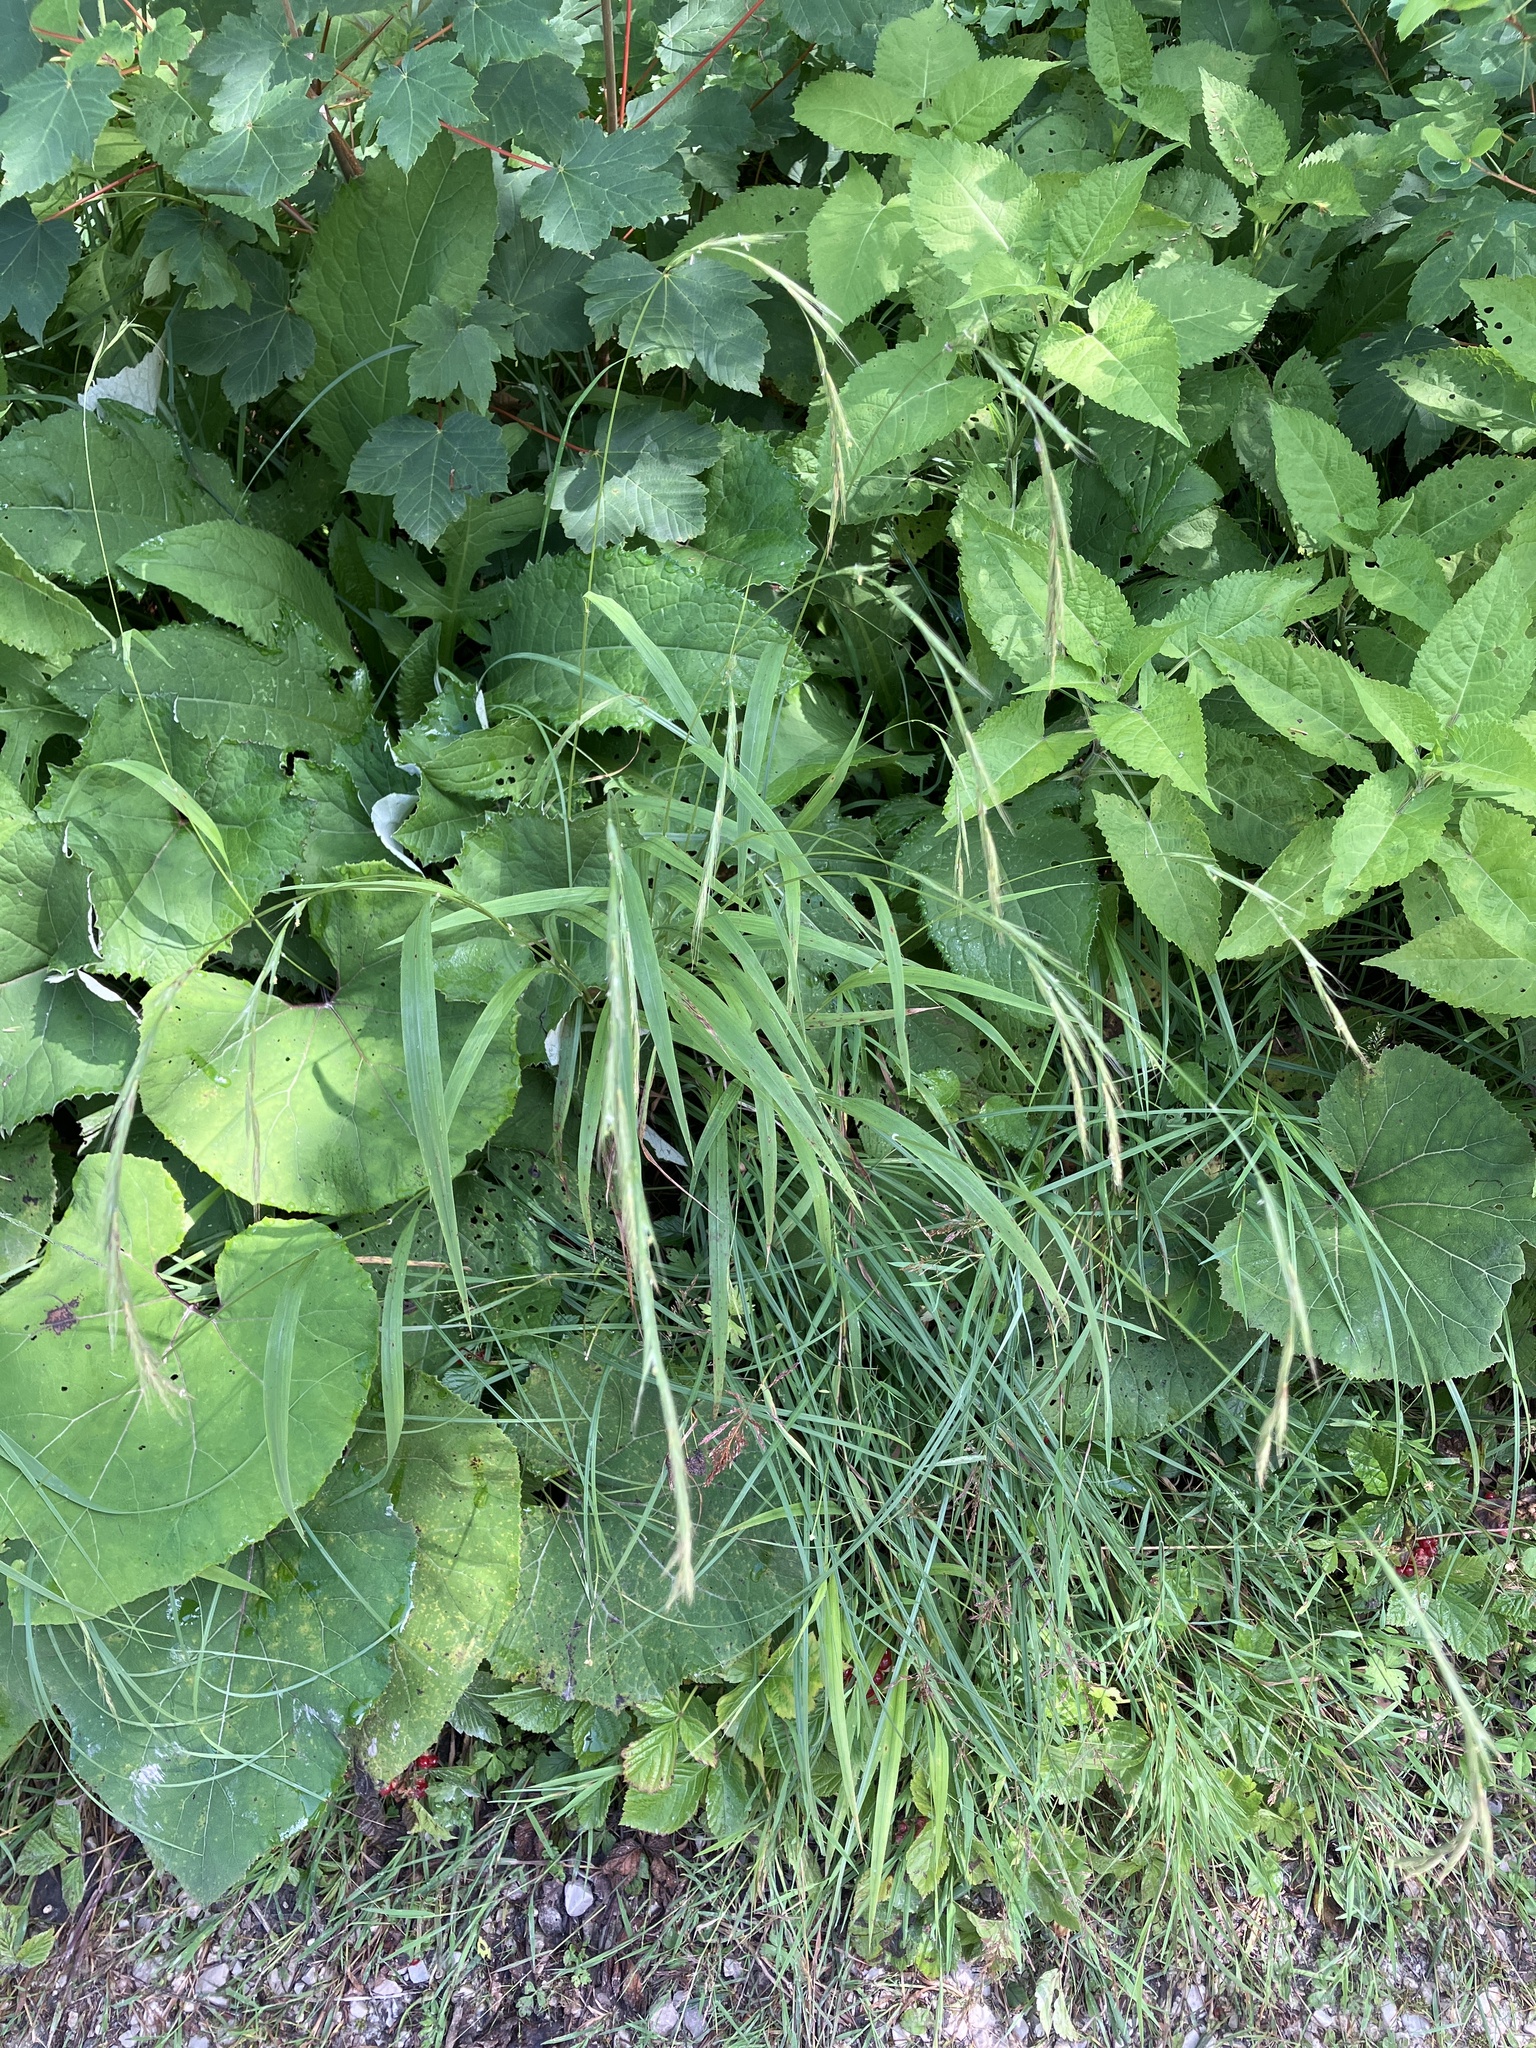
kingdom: Plantae
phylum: Tracheophyta
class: Liliopsida
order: Poales
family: Poaceae
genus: Brachypodium
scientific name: Brachypodium sylvaticum
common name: False-brome
